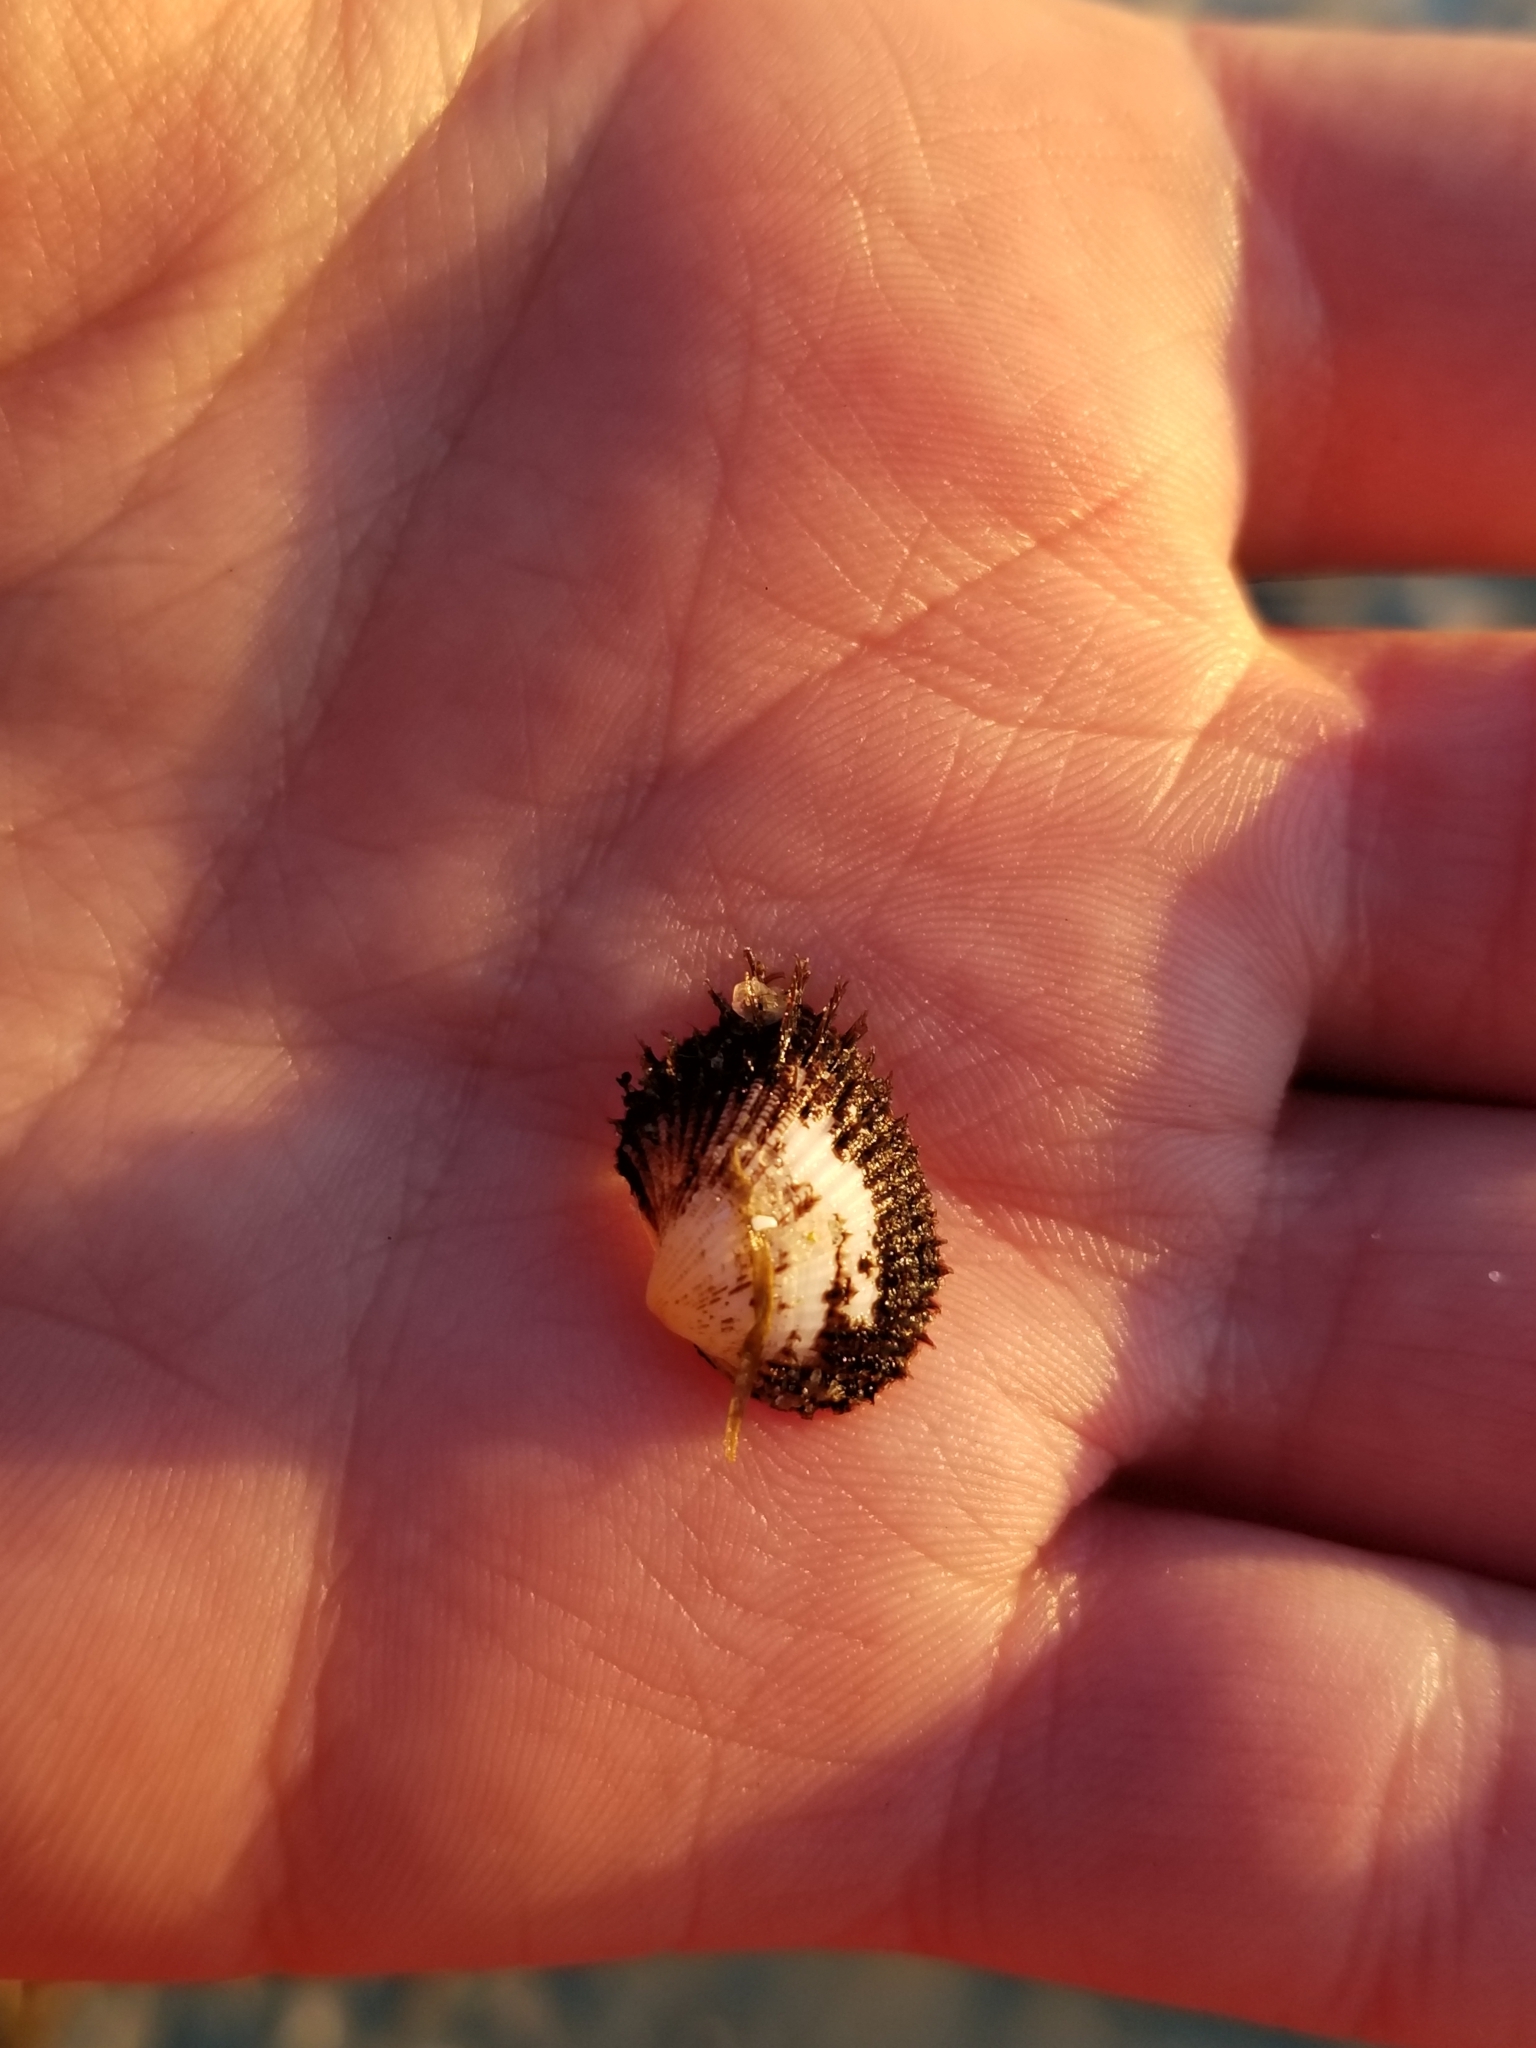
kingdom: Animalia
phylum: Mollusca
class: Bivalvia
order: Arcida
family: Noetiidae
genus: Noetia
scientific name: Noetia ponderosa
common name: Ponderous ark
